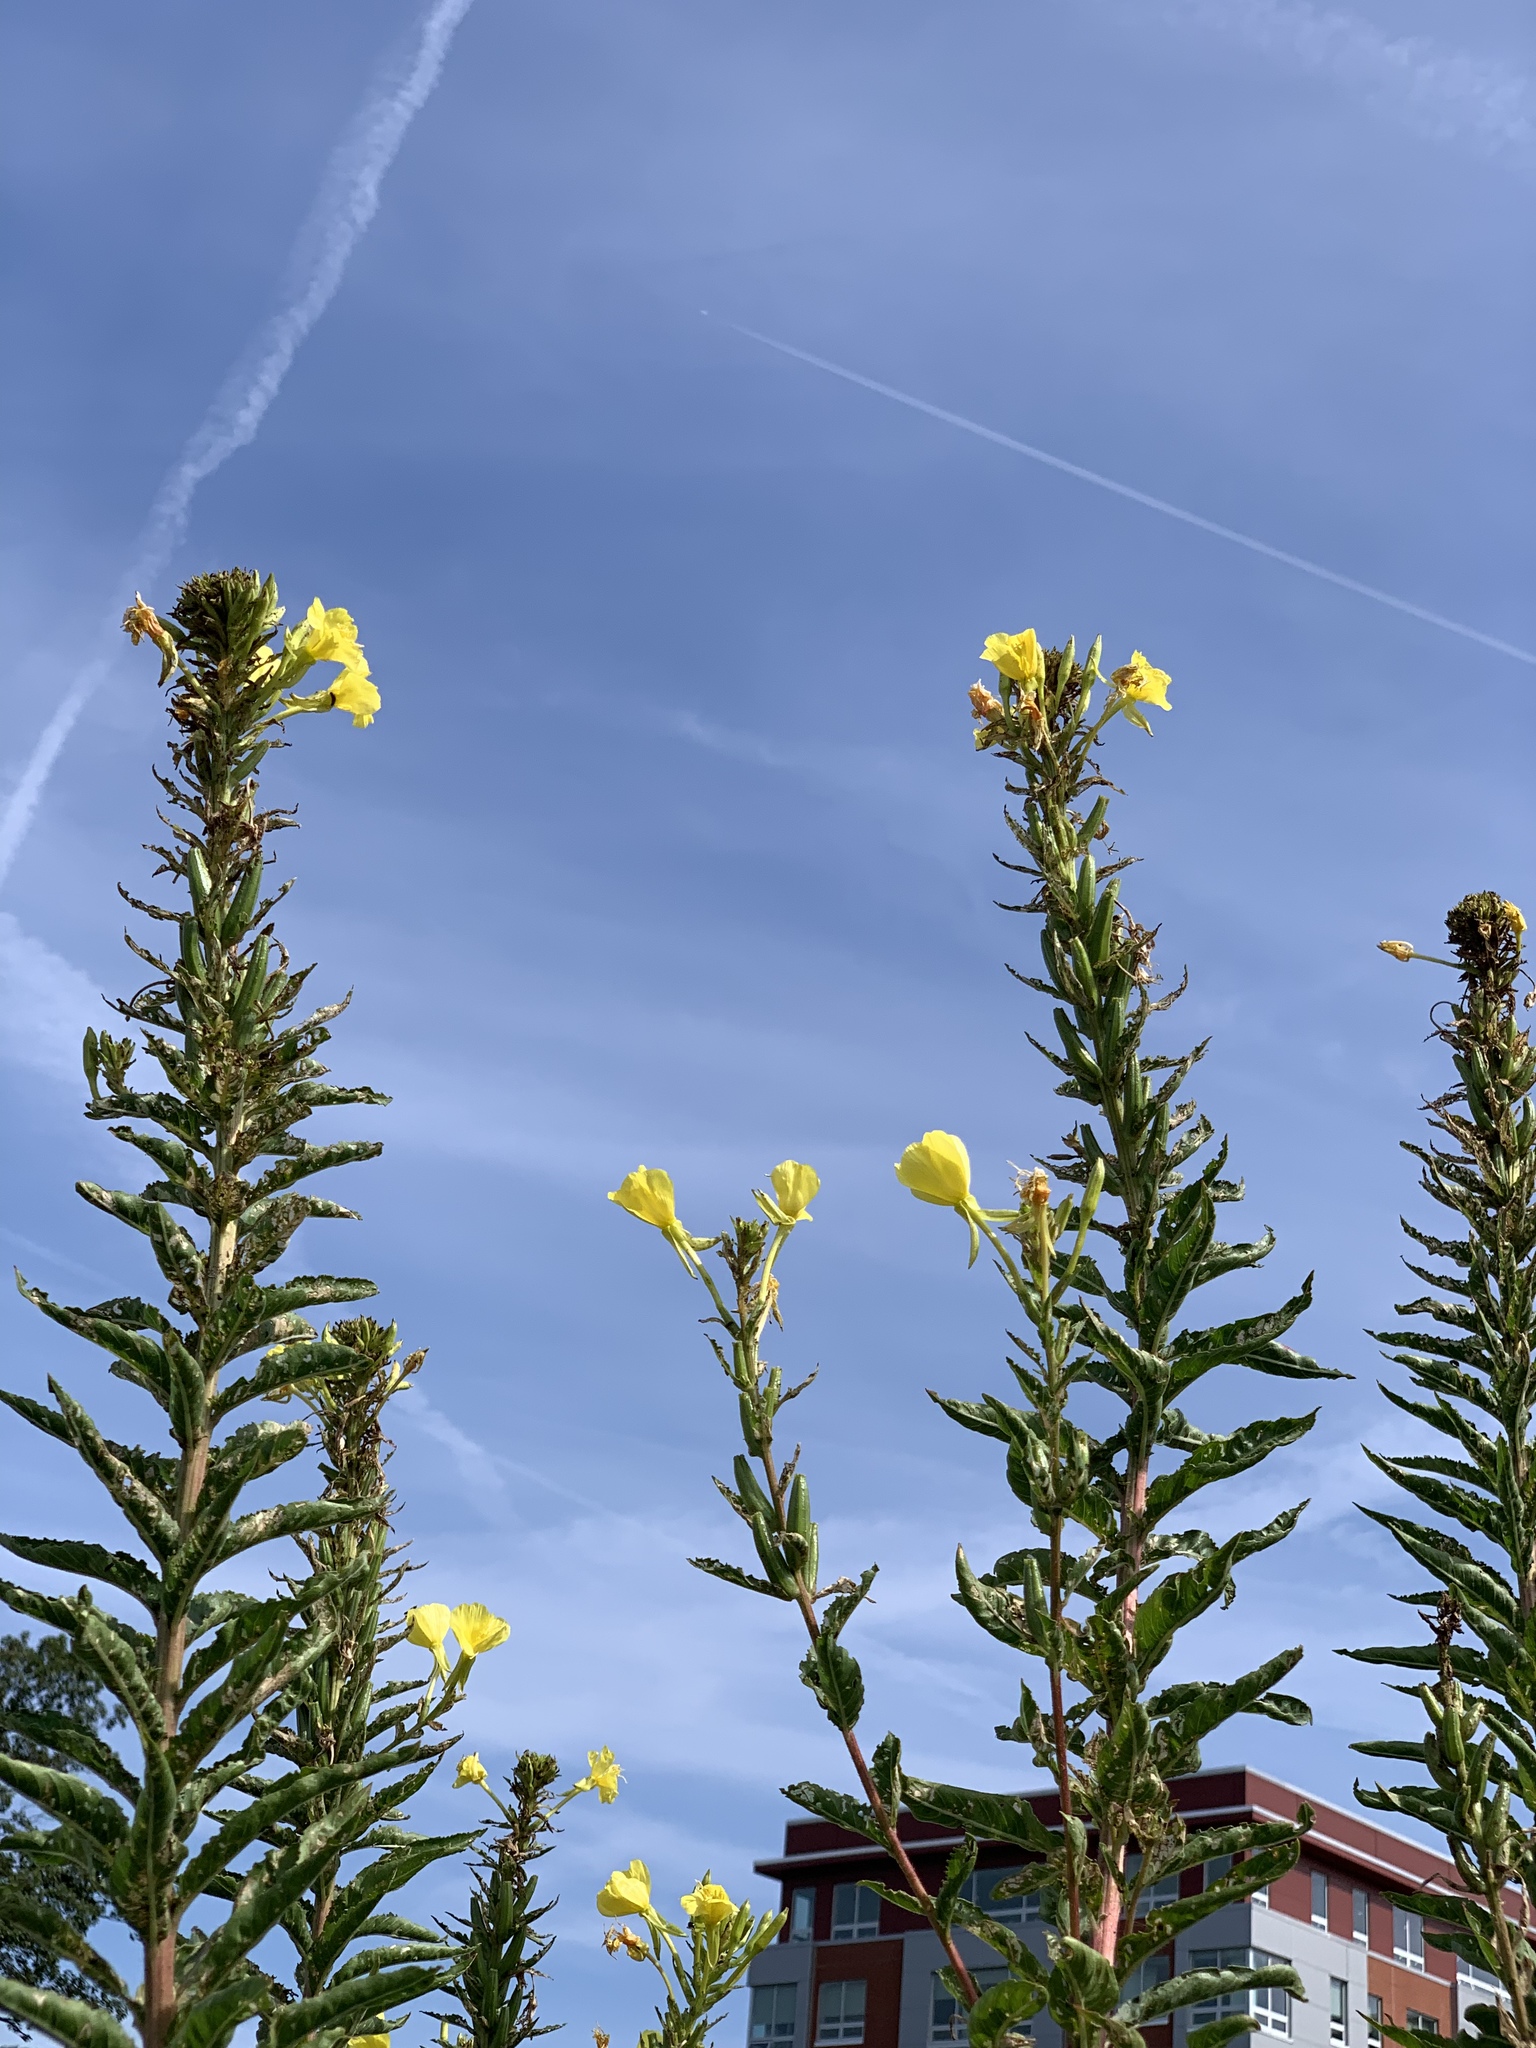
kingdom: Plantae
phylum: Tracheophyta
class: Magnoliopsida
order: Myrtales
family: Onagraceae
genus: Oenothera
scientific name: Oenothera biennis
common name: Common evening-primrose
